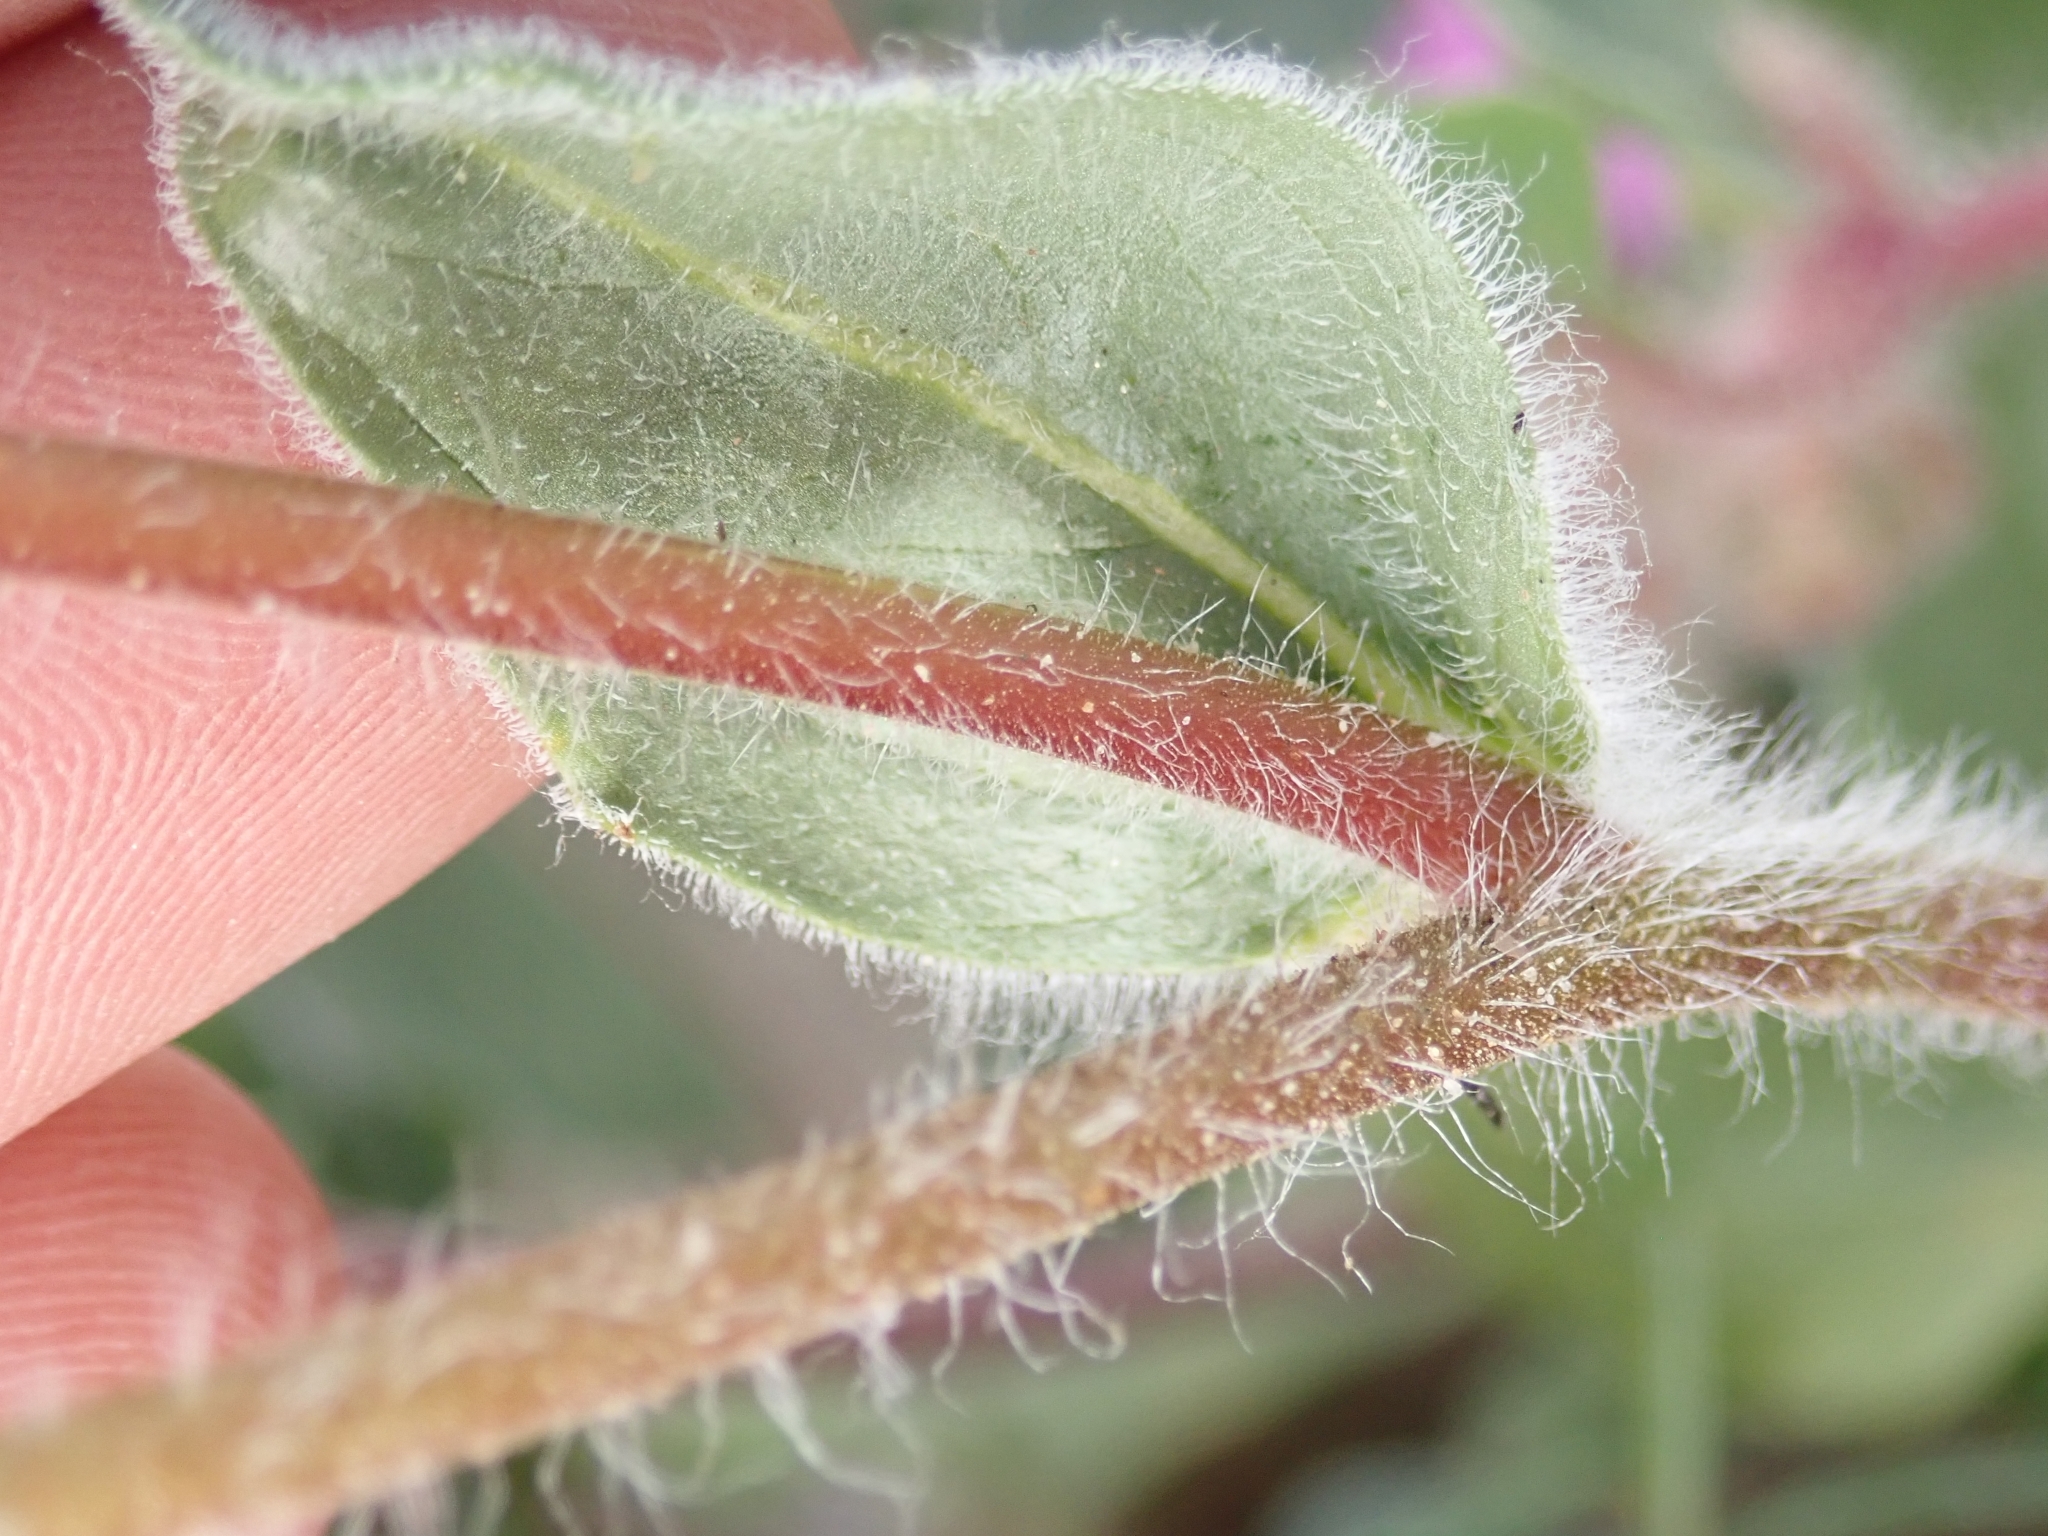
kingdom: Plantae
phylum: Tracheophyta
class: Magnoliopsida
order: Asterales
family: Asteraceae
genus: Geraea
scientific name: Geraea canescens
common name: Desert-gold
